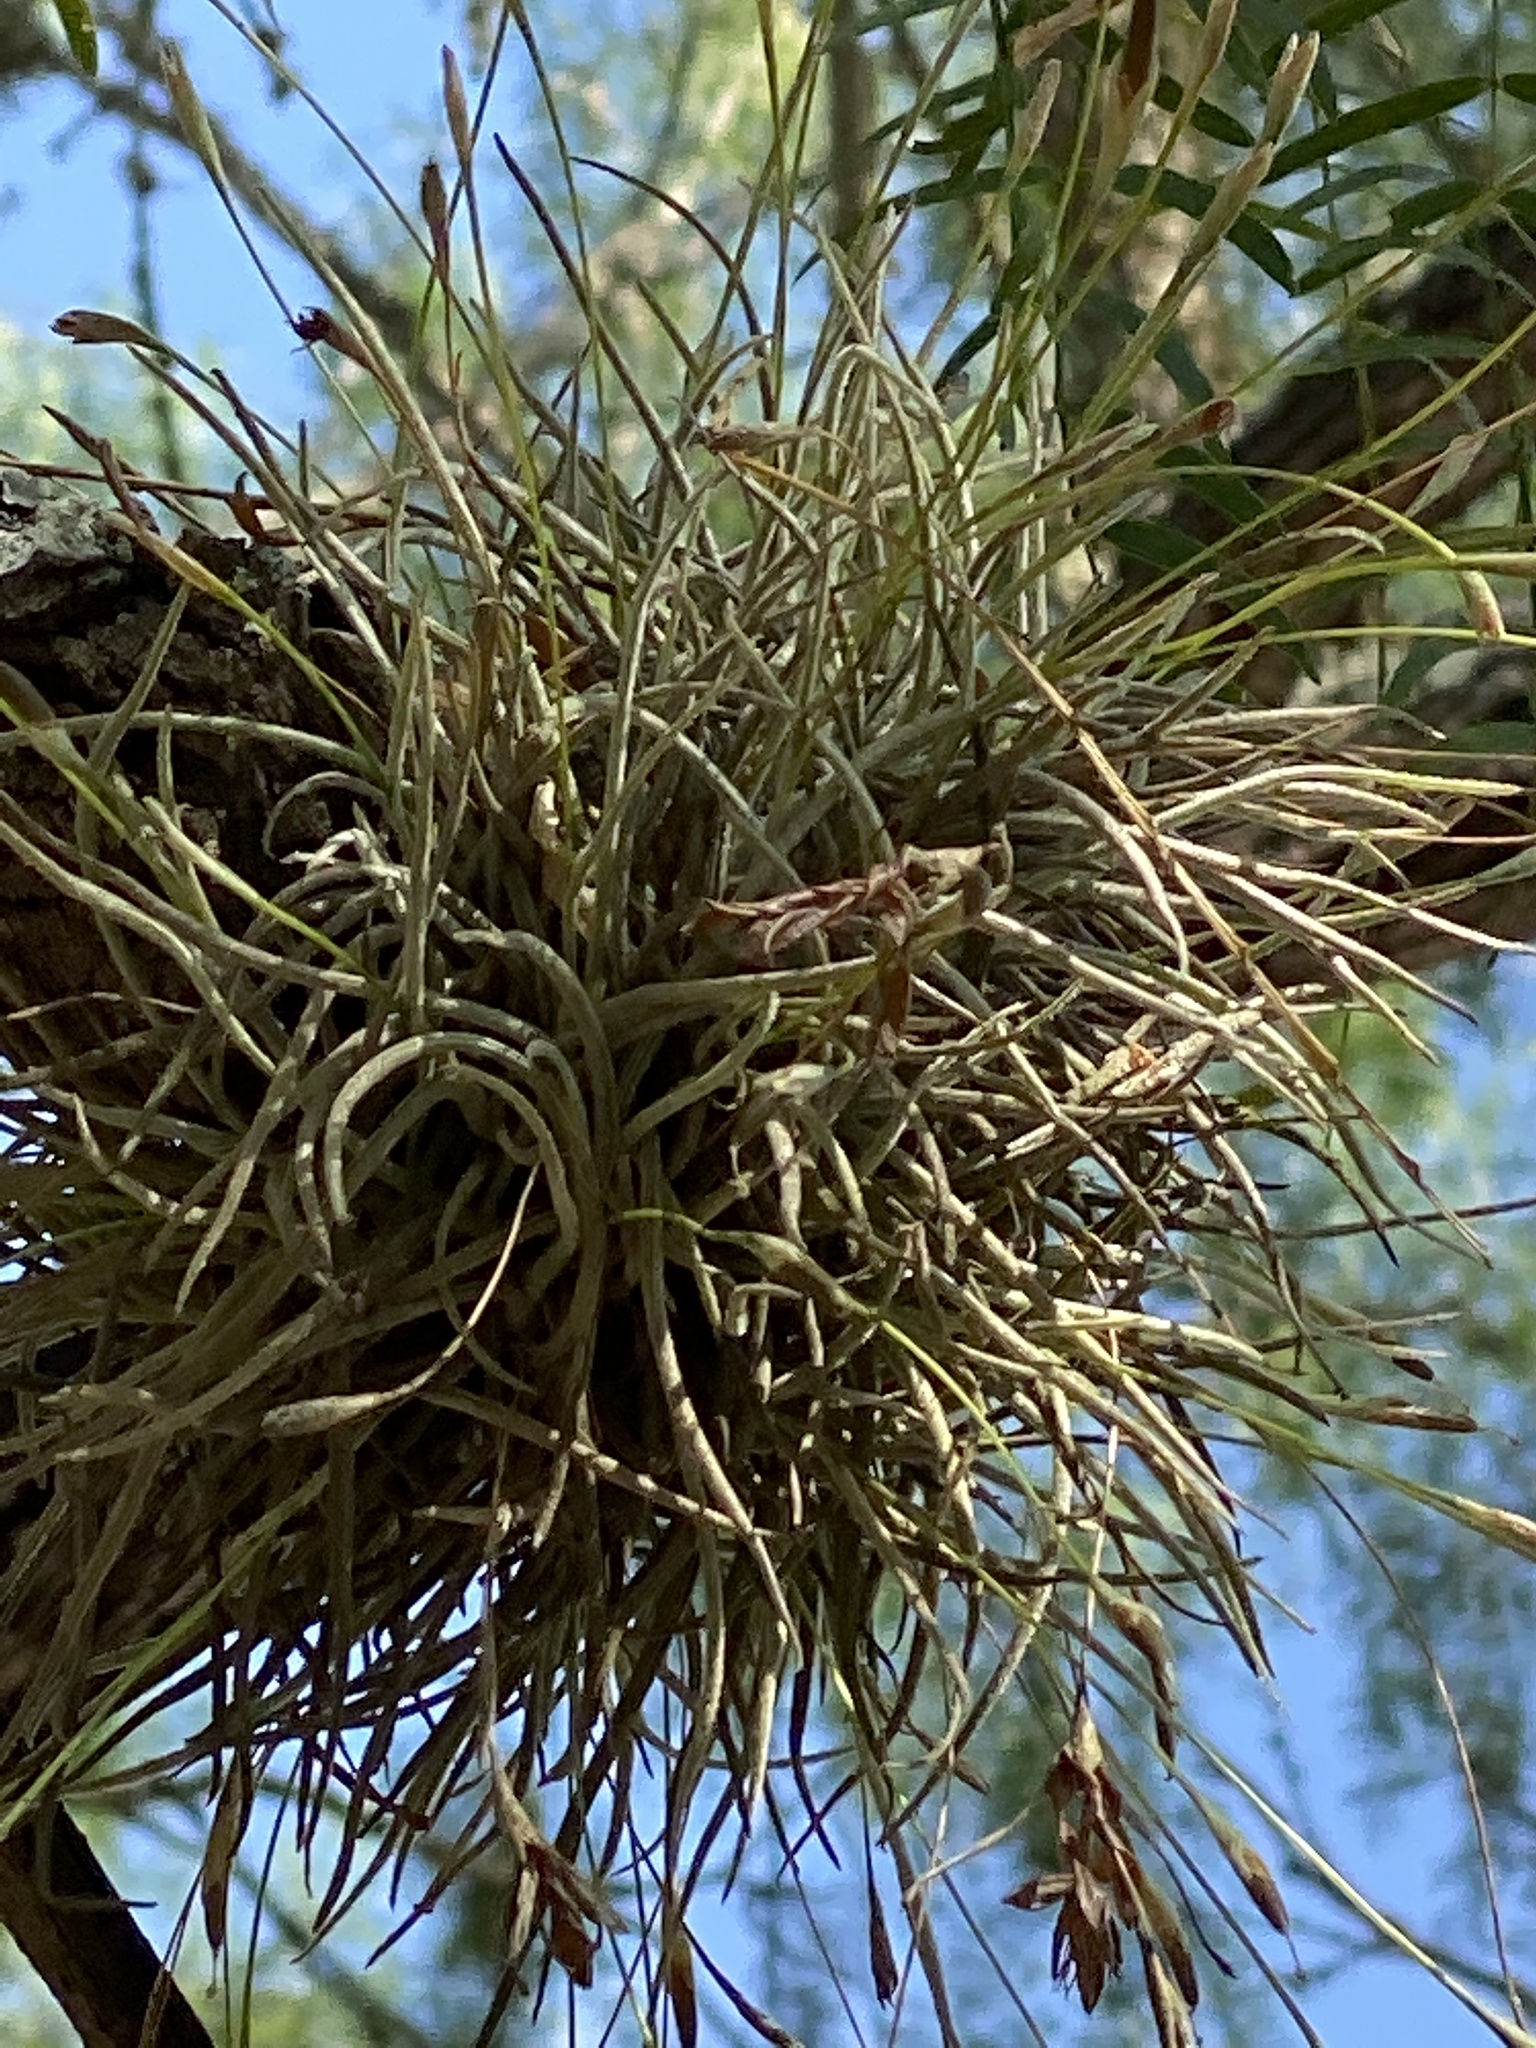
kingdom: Plantae
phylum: Tracheophyta
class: Liliopsida
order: Poales
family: Bromeliaceae
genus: Tillandsia
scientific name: Tillandsia recurvata
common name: Small ballmoss
